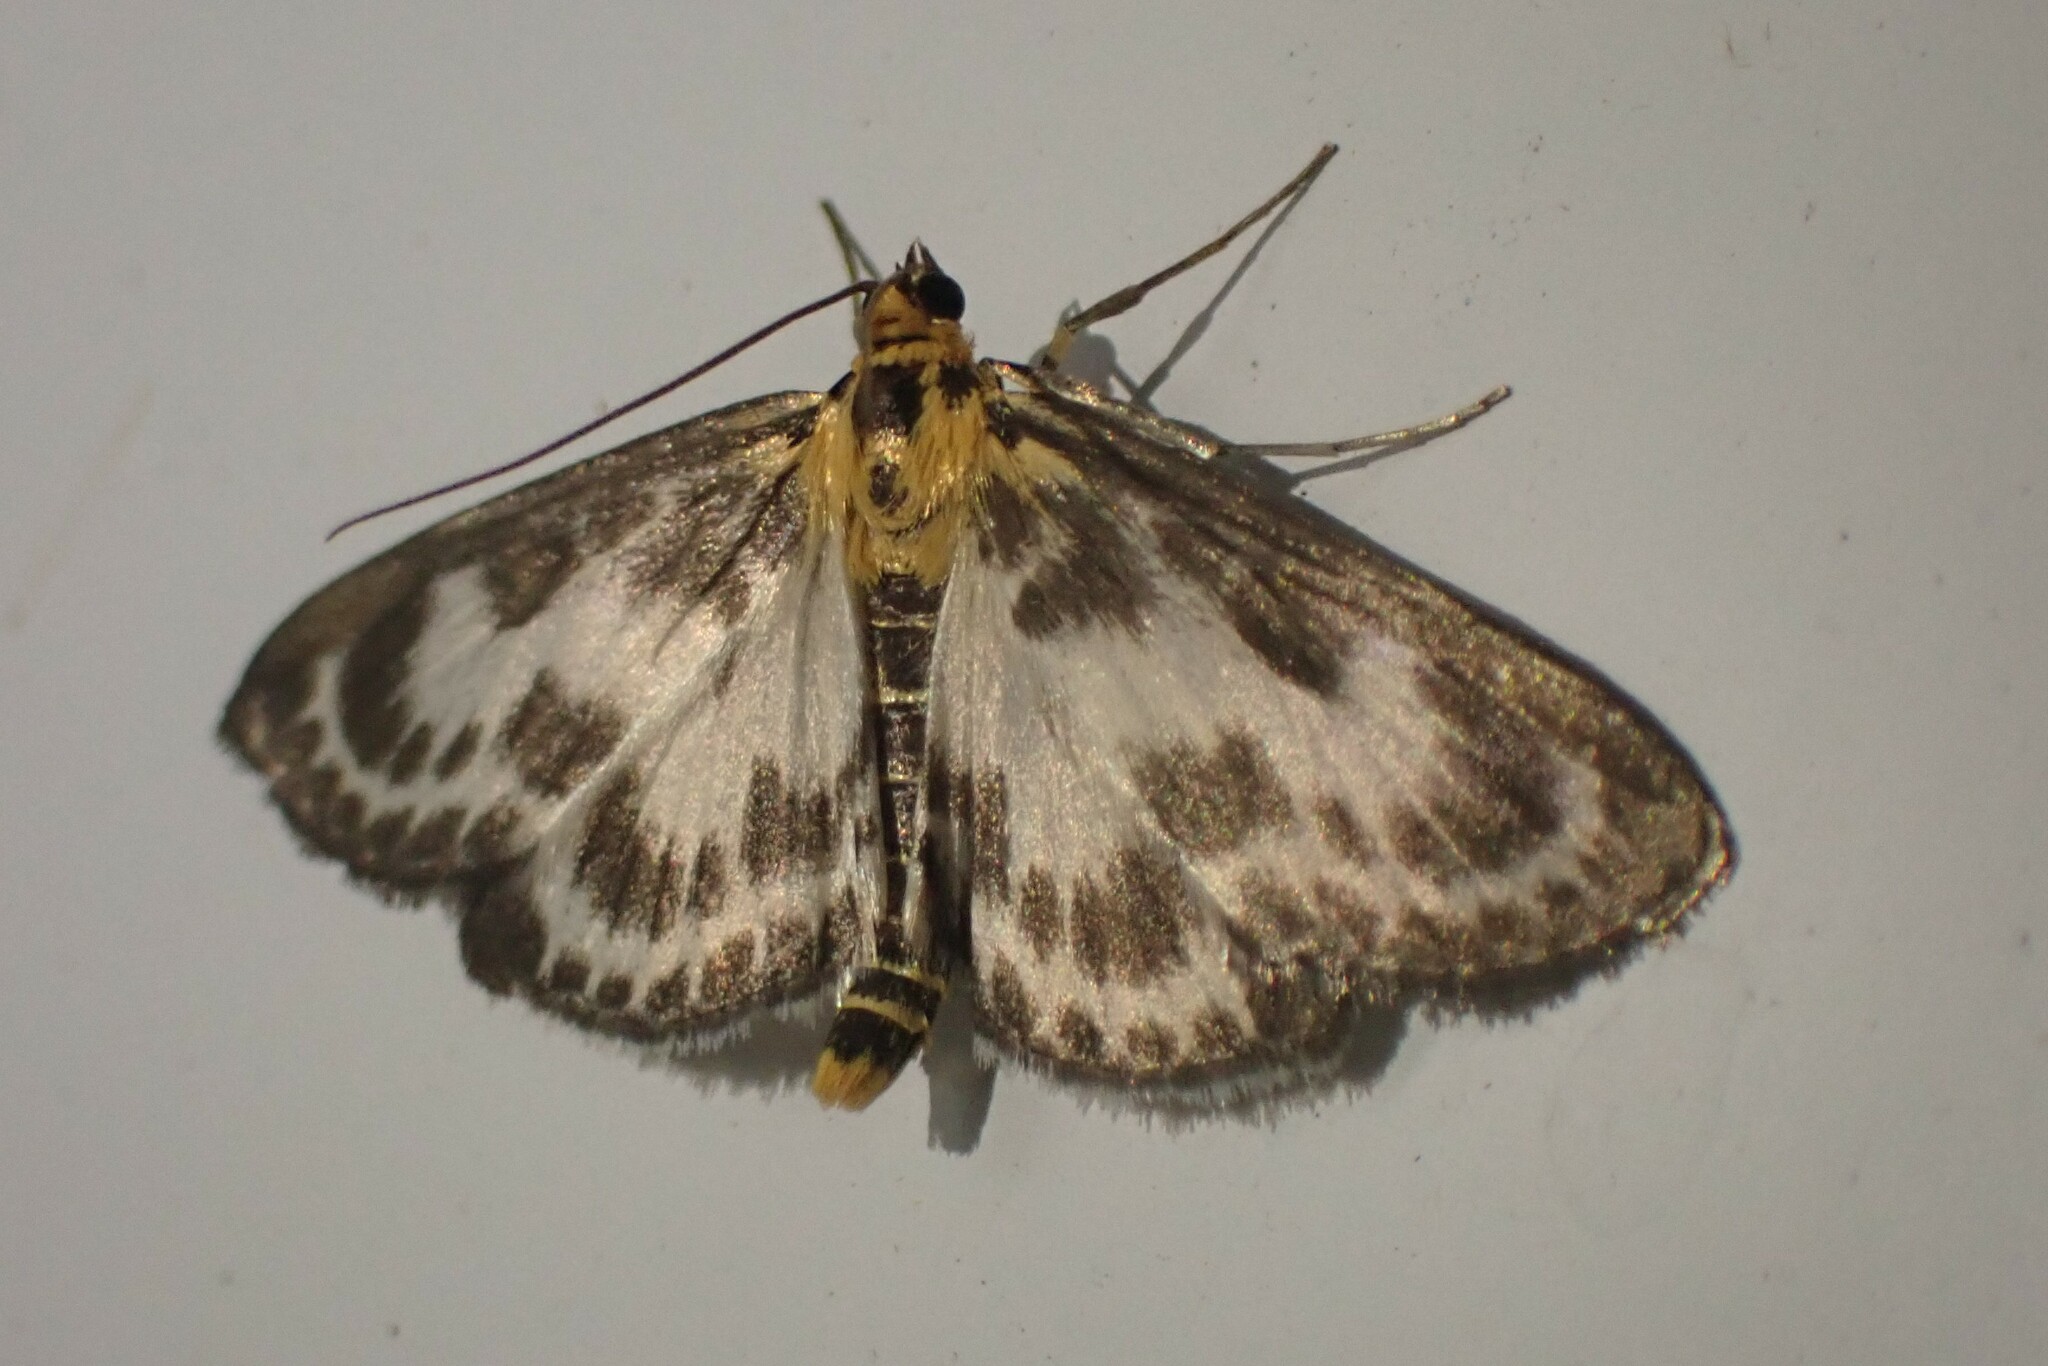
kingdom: Animalia
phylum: Arthropoda
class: Insecta
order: Lepidoptera
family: Crambidae
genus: Anania
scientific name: Anania hortulata
